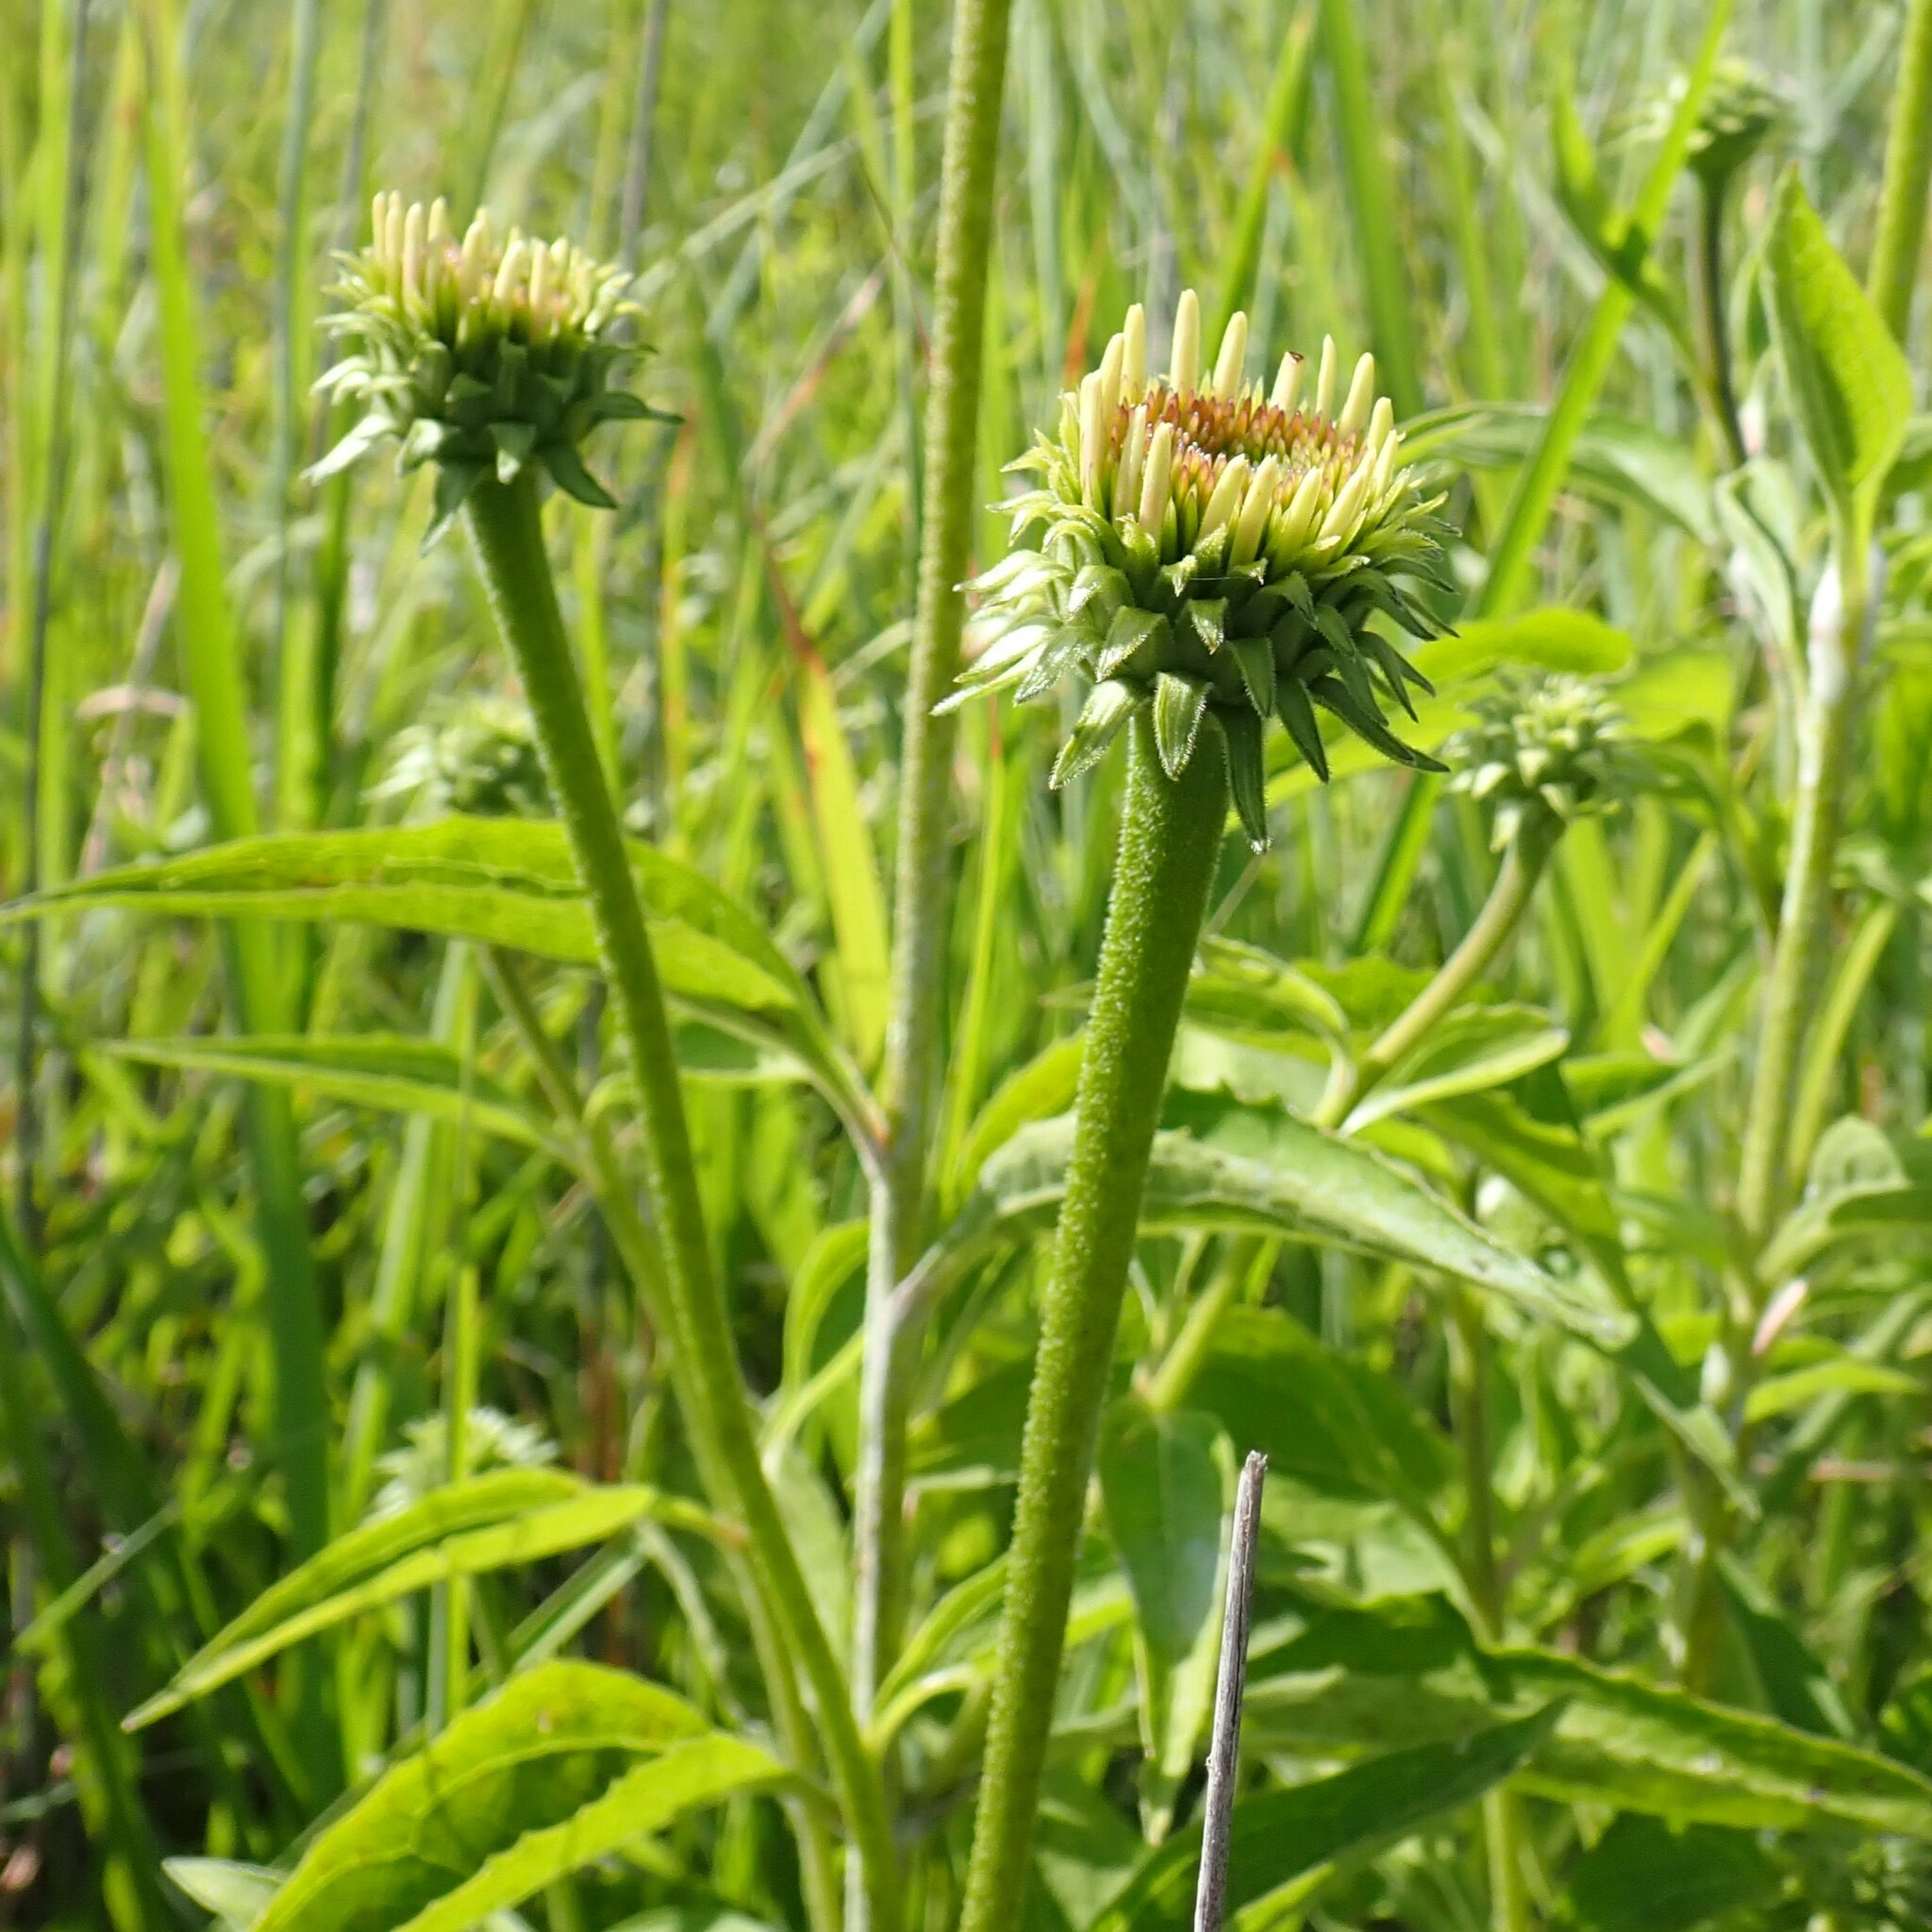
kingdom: Plantae
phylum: Tracheophyta
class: Magnoliopsida
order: Asterales
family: Asteraceae
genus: Echinacea
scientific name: Echinacea purpurea
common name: Broad-leaved purple coneflower
